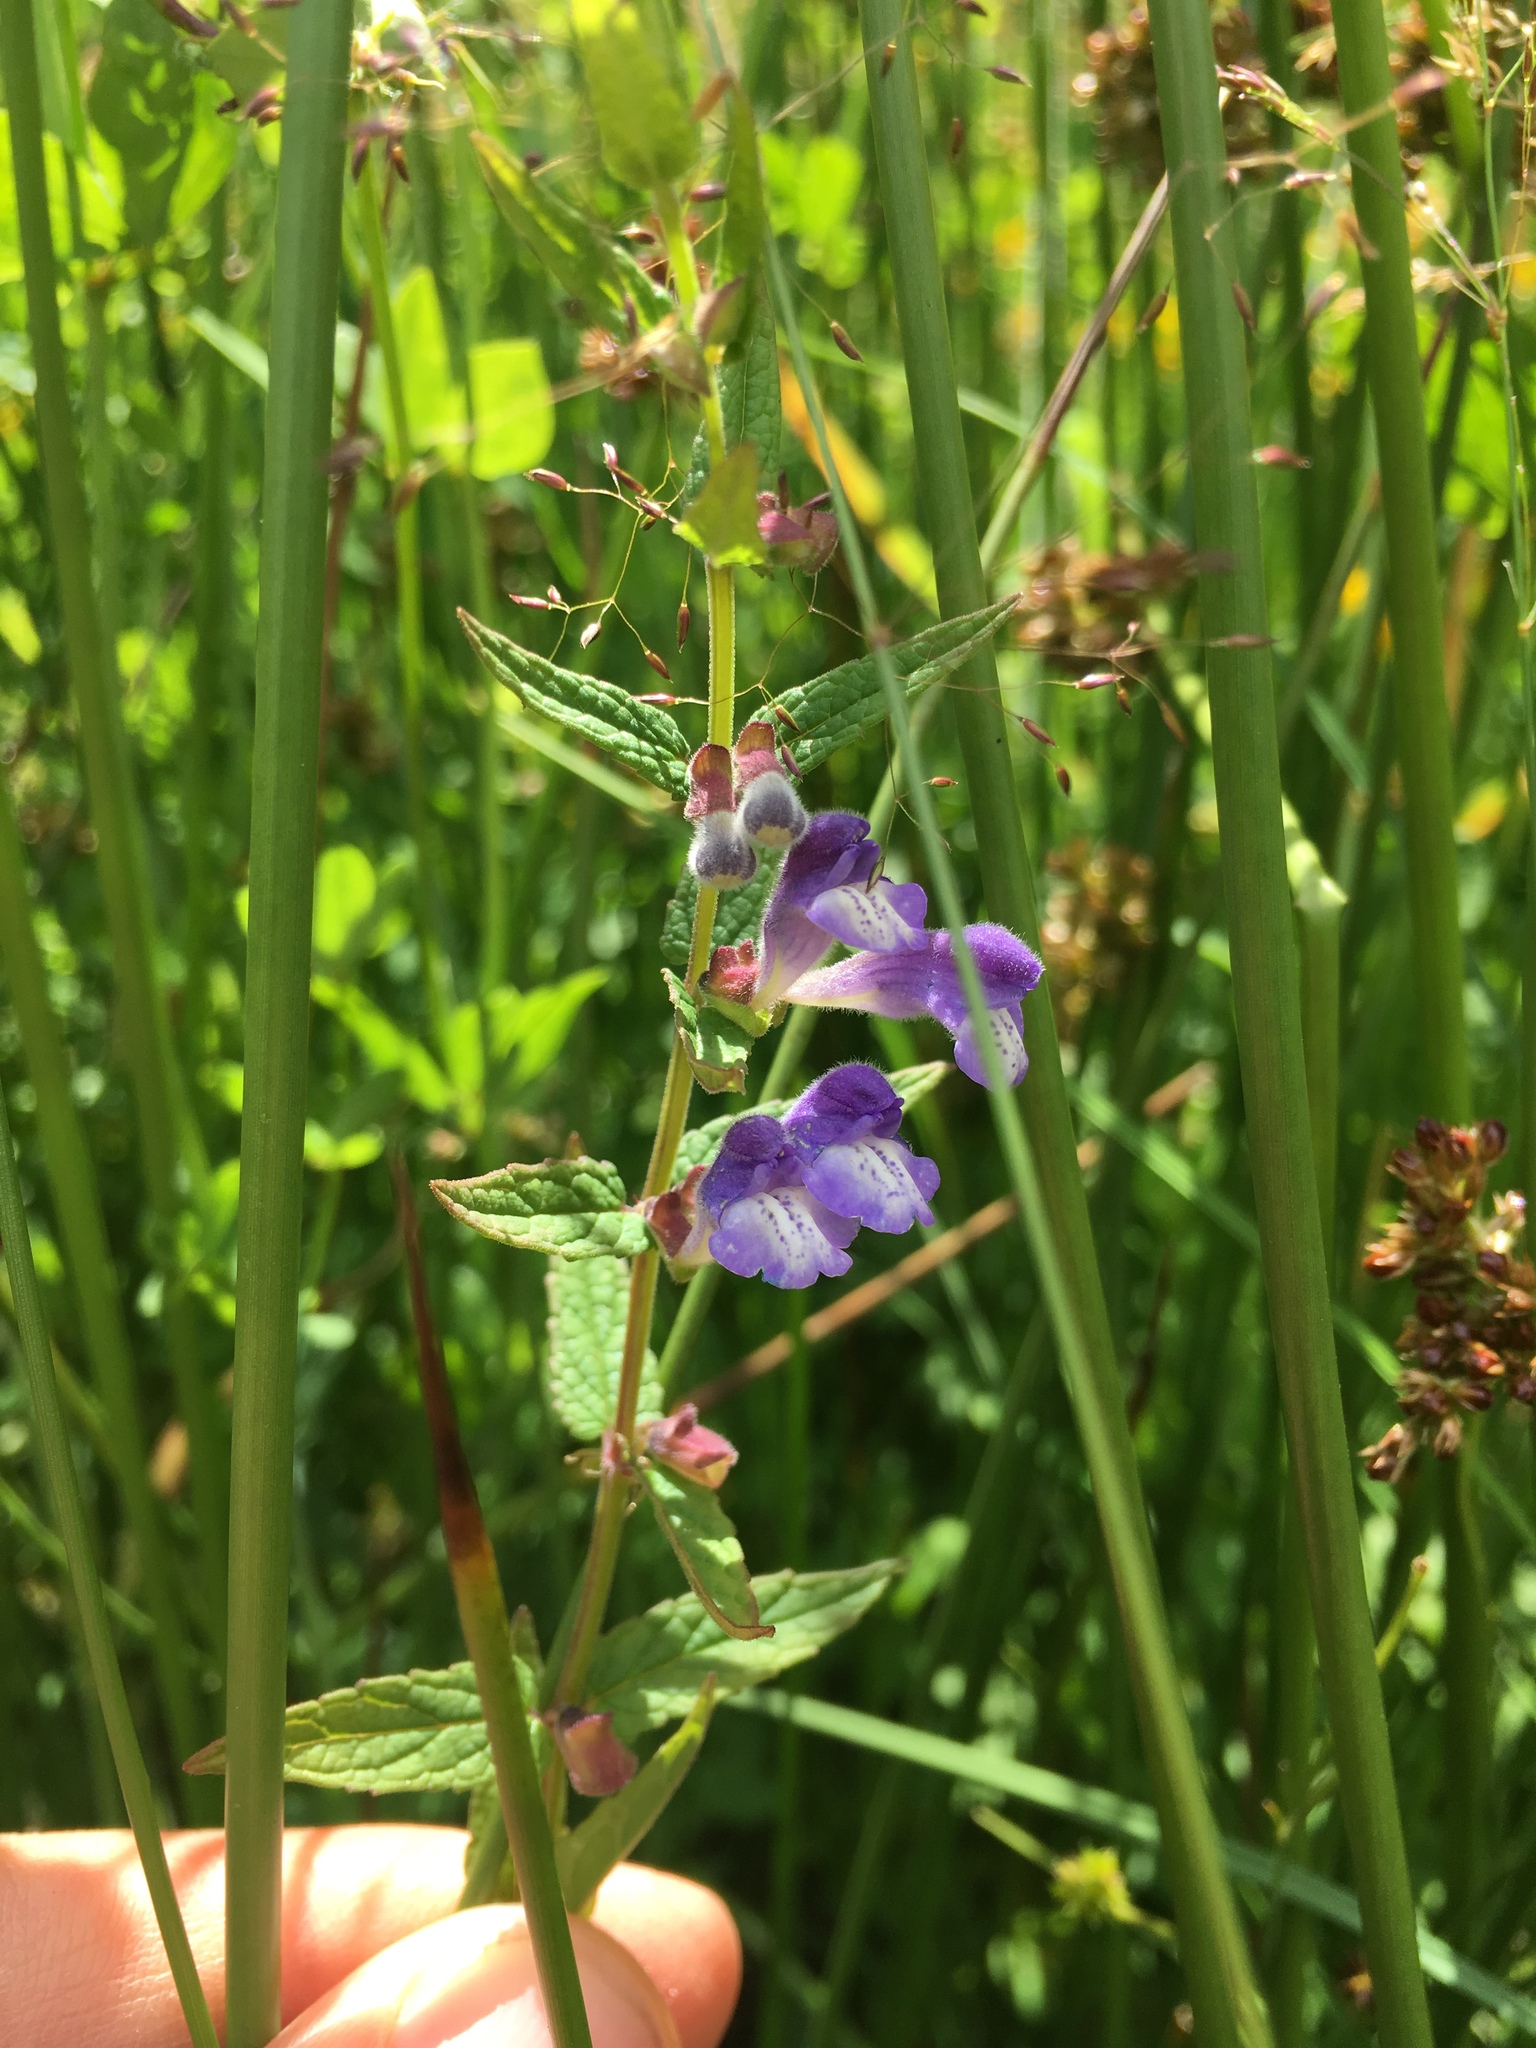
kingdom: Plantae
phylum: Tracheophyta
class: Magnoliopsida
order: Lamiales
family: Lamiaceae
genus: Scutellaria
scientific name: Scutellaria galericulata
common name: Skullcap
